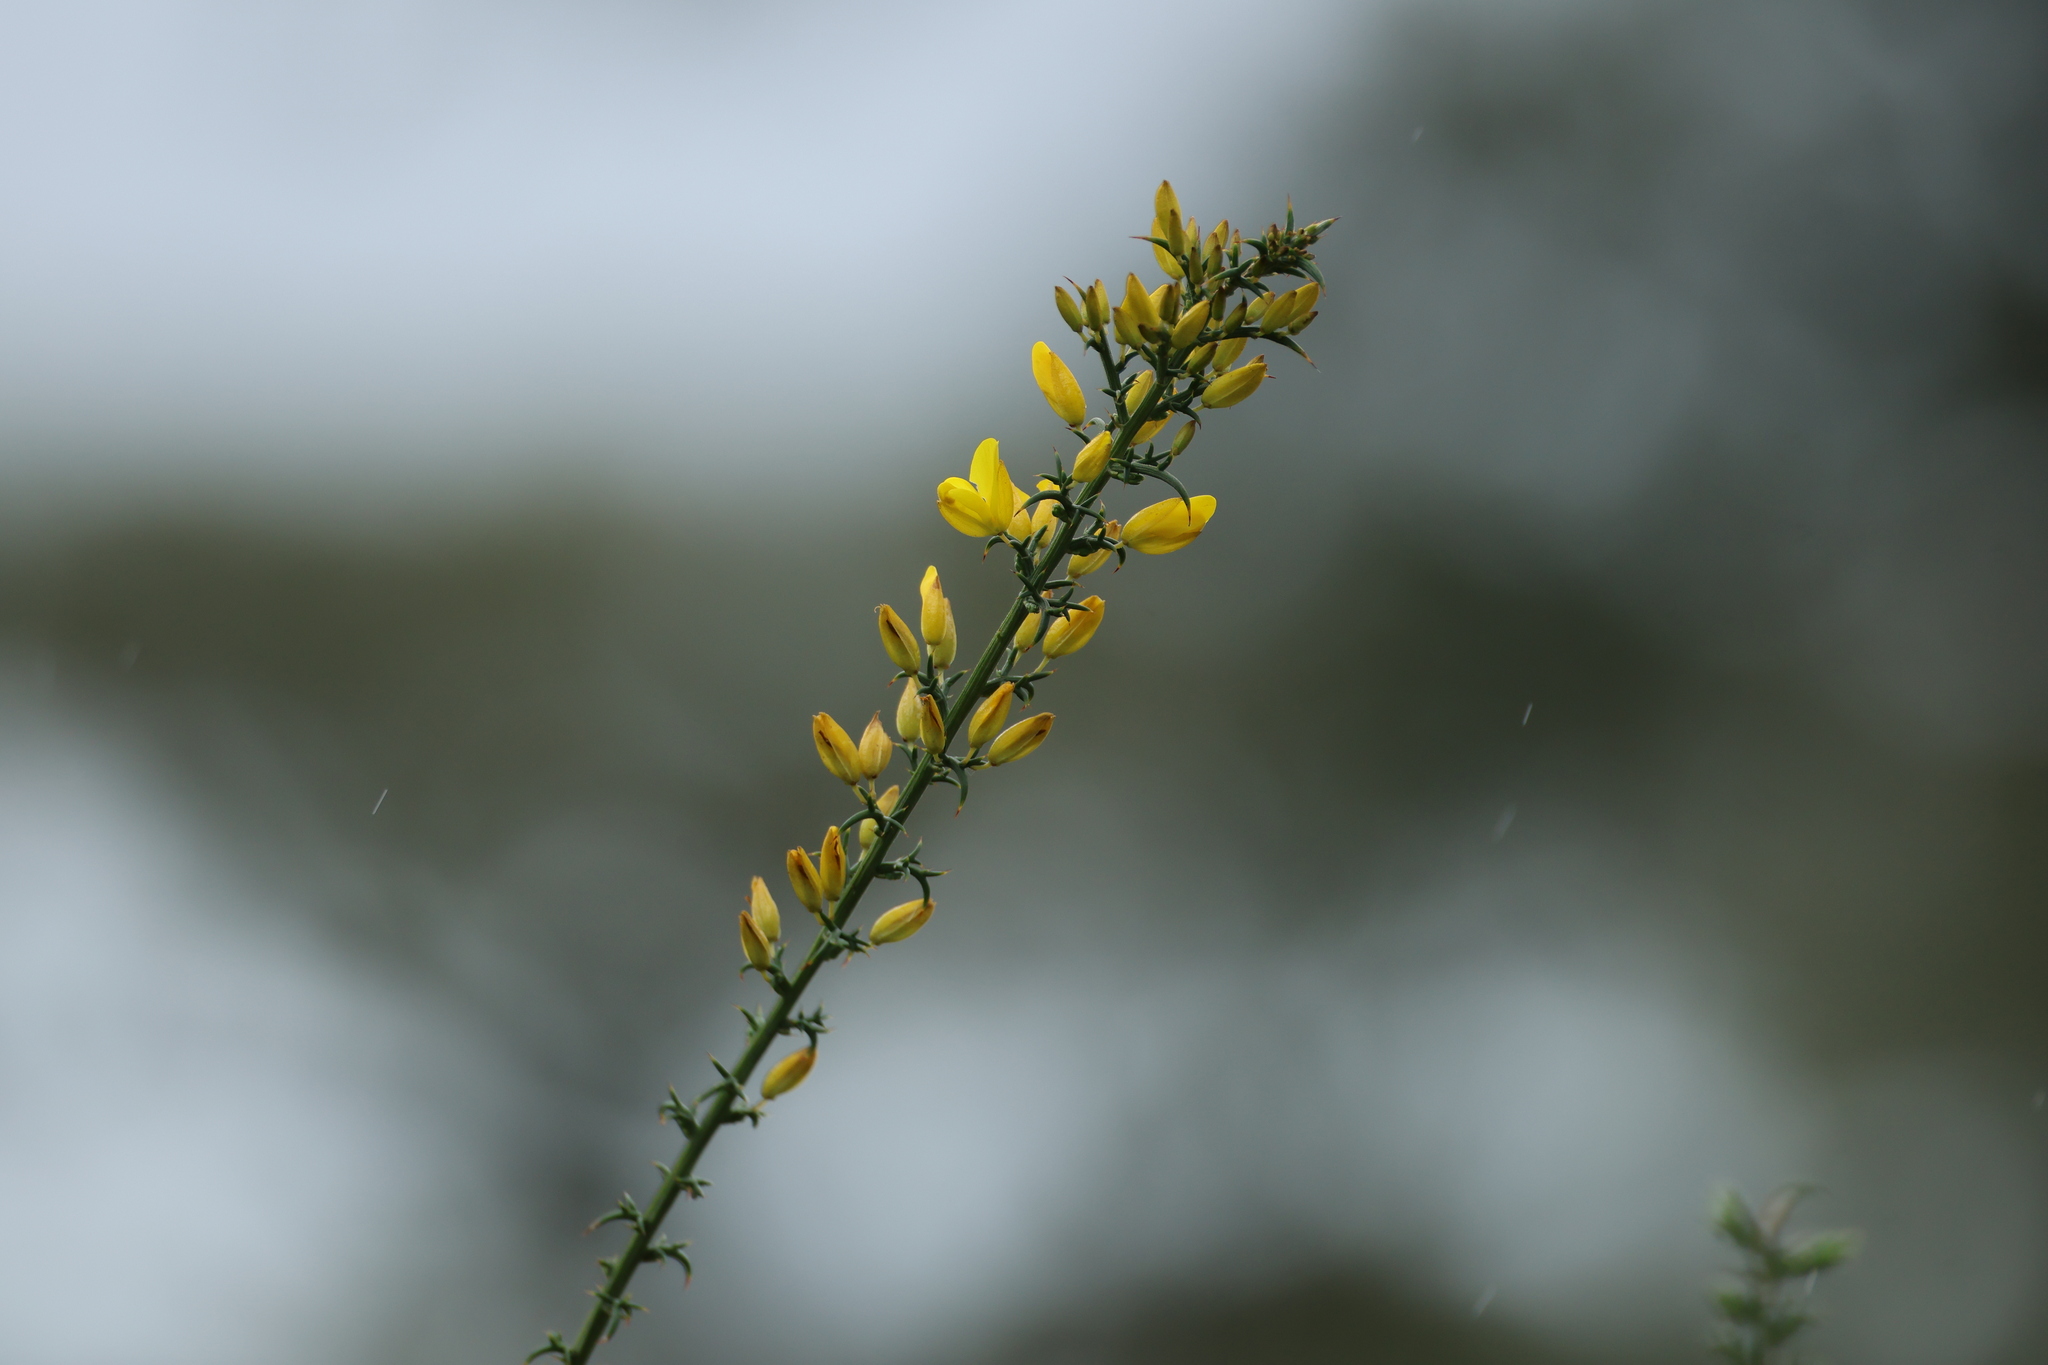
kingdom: Plantae
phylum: Tracheophyta
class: Magnoliopsida
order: Fabales
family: Fabaceae
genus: Ulex
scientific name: Ulex australis
